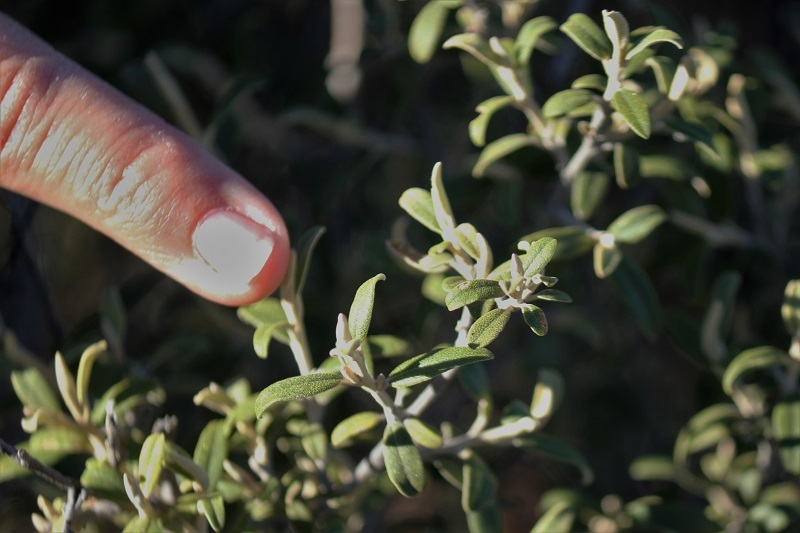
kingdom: Plantae
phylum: Tracheophyta
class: Magnoliopsida
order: Asterales
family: Asteraceae
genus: Tarchonanthus
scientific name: Tarchonanthus minor
